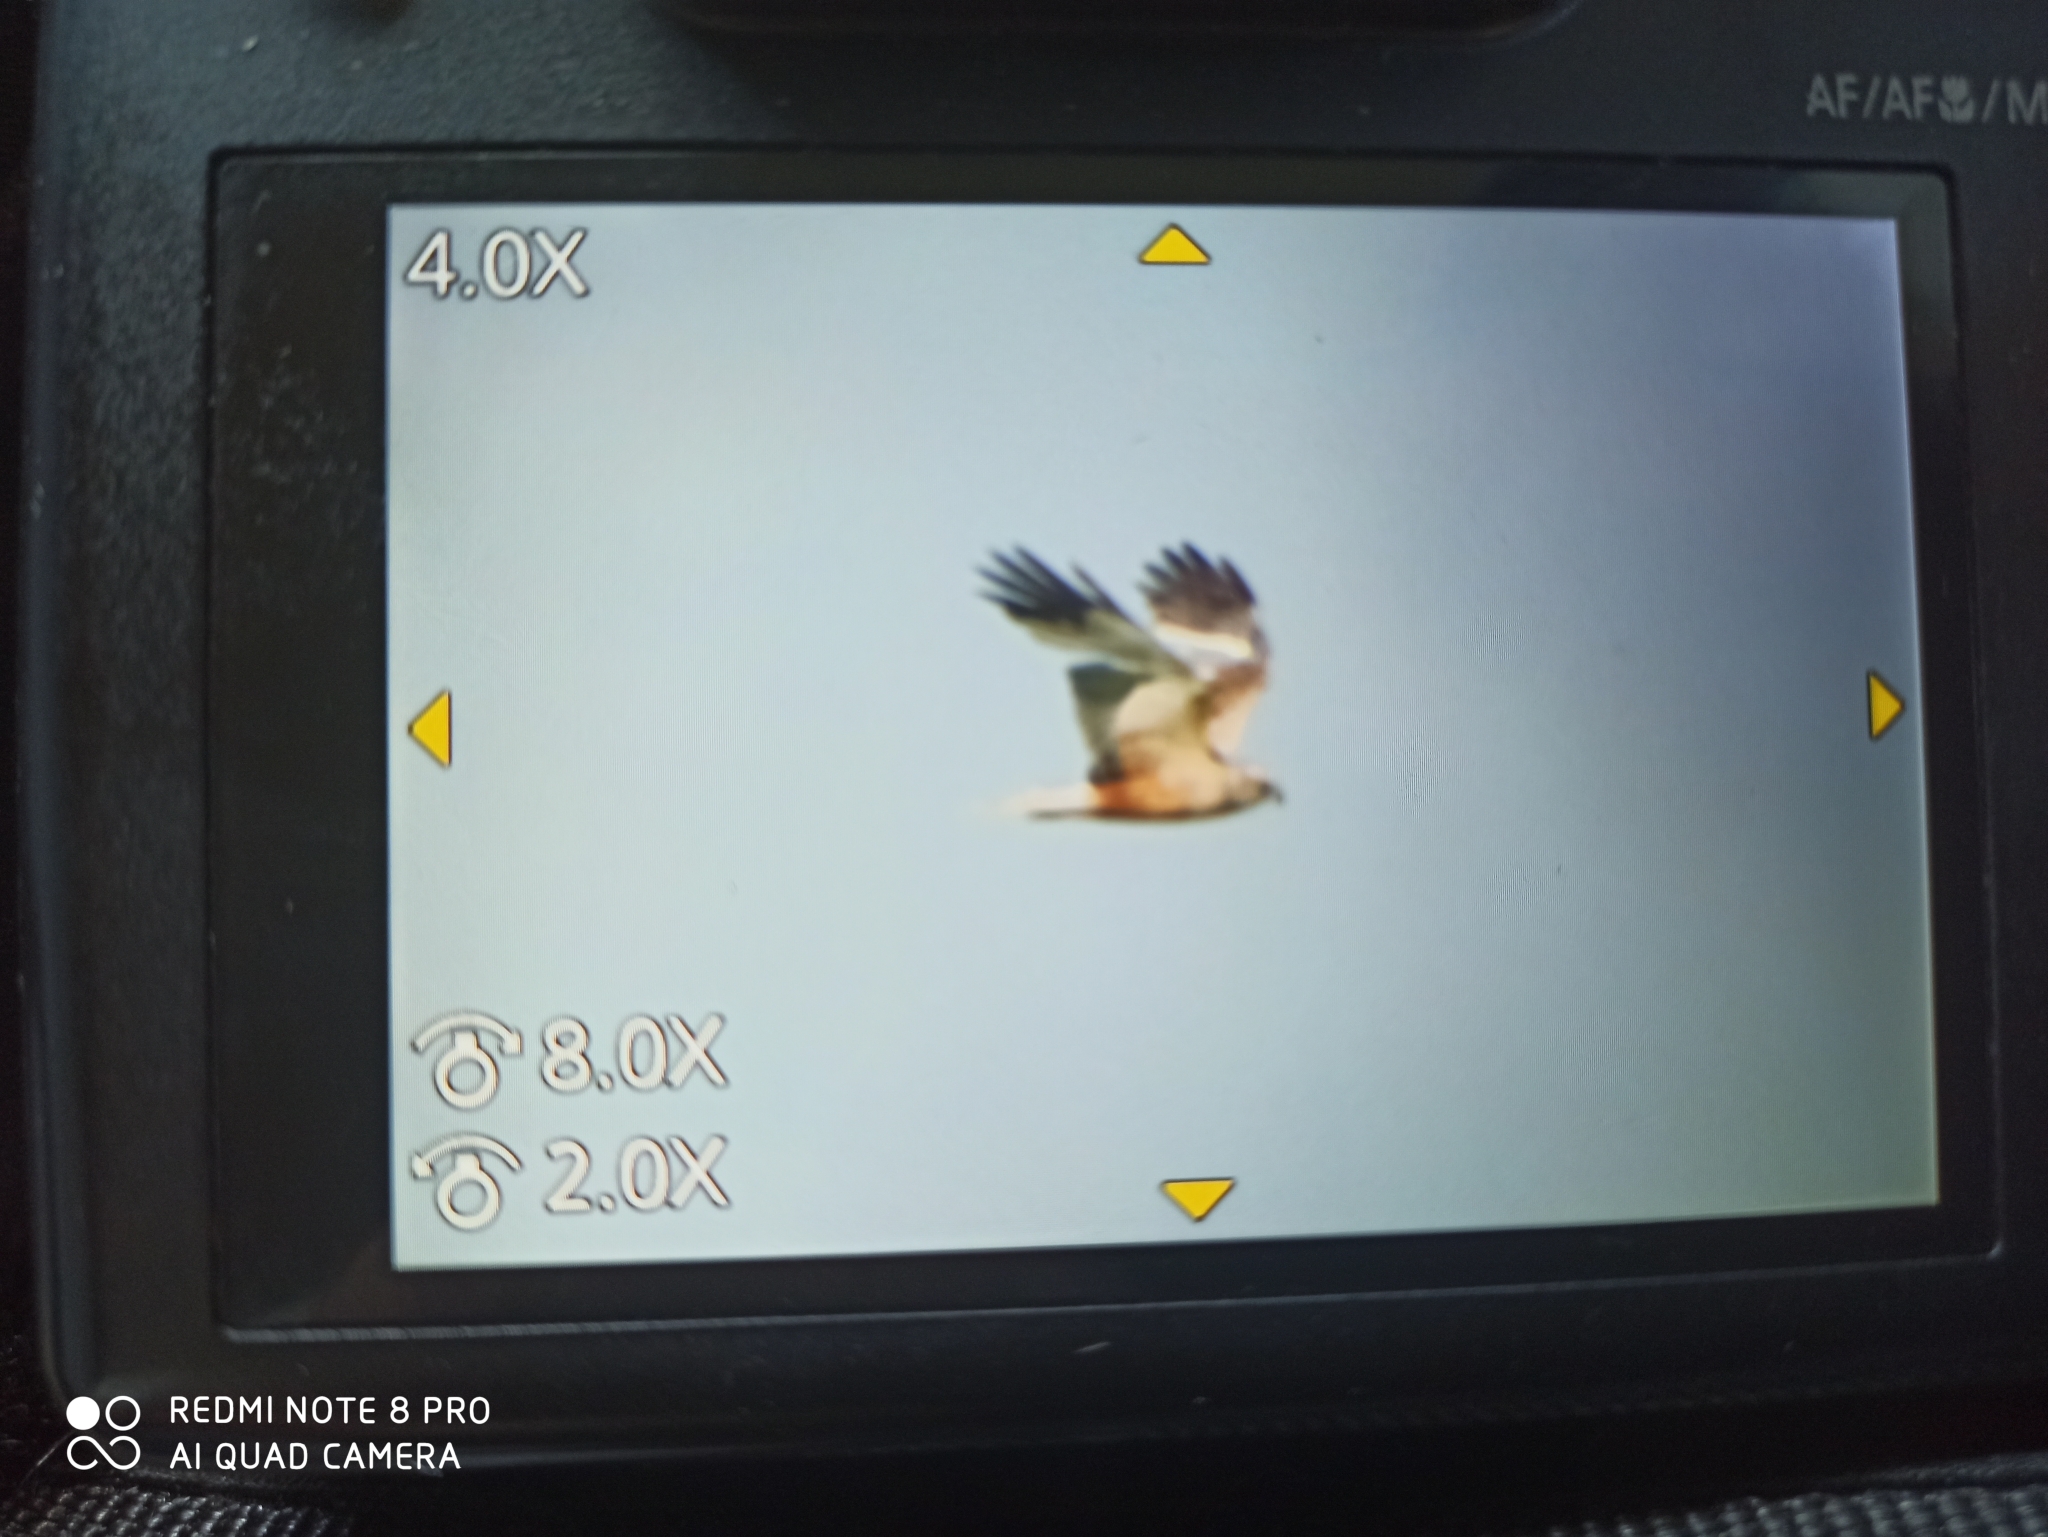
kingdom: Animalia
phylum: Chordata
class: Aves
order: Accipitriformes
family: Accipitridae
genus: Circus
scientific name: Circus aeruginosus
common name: Western marsh harrier
